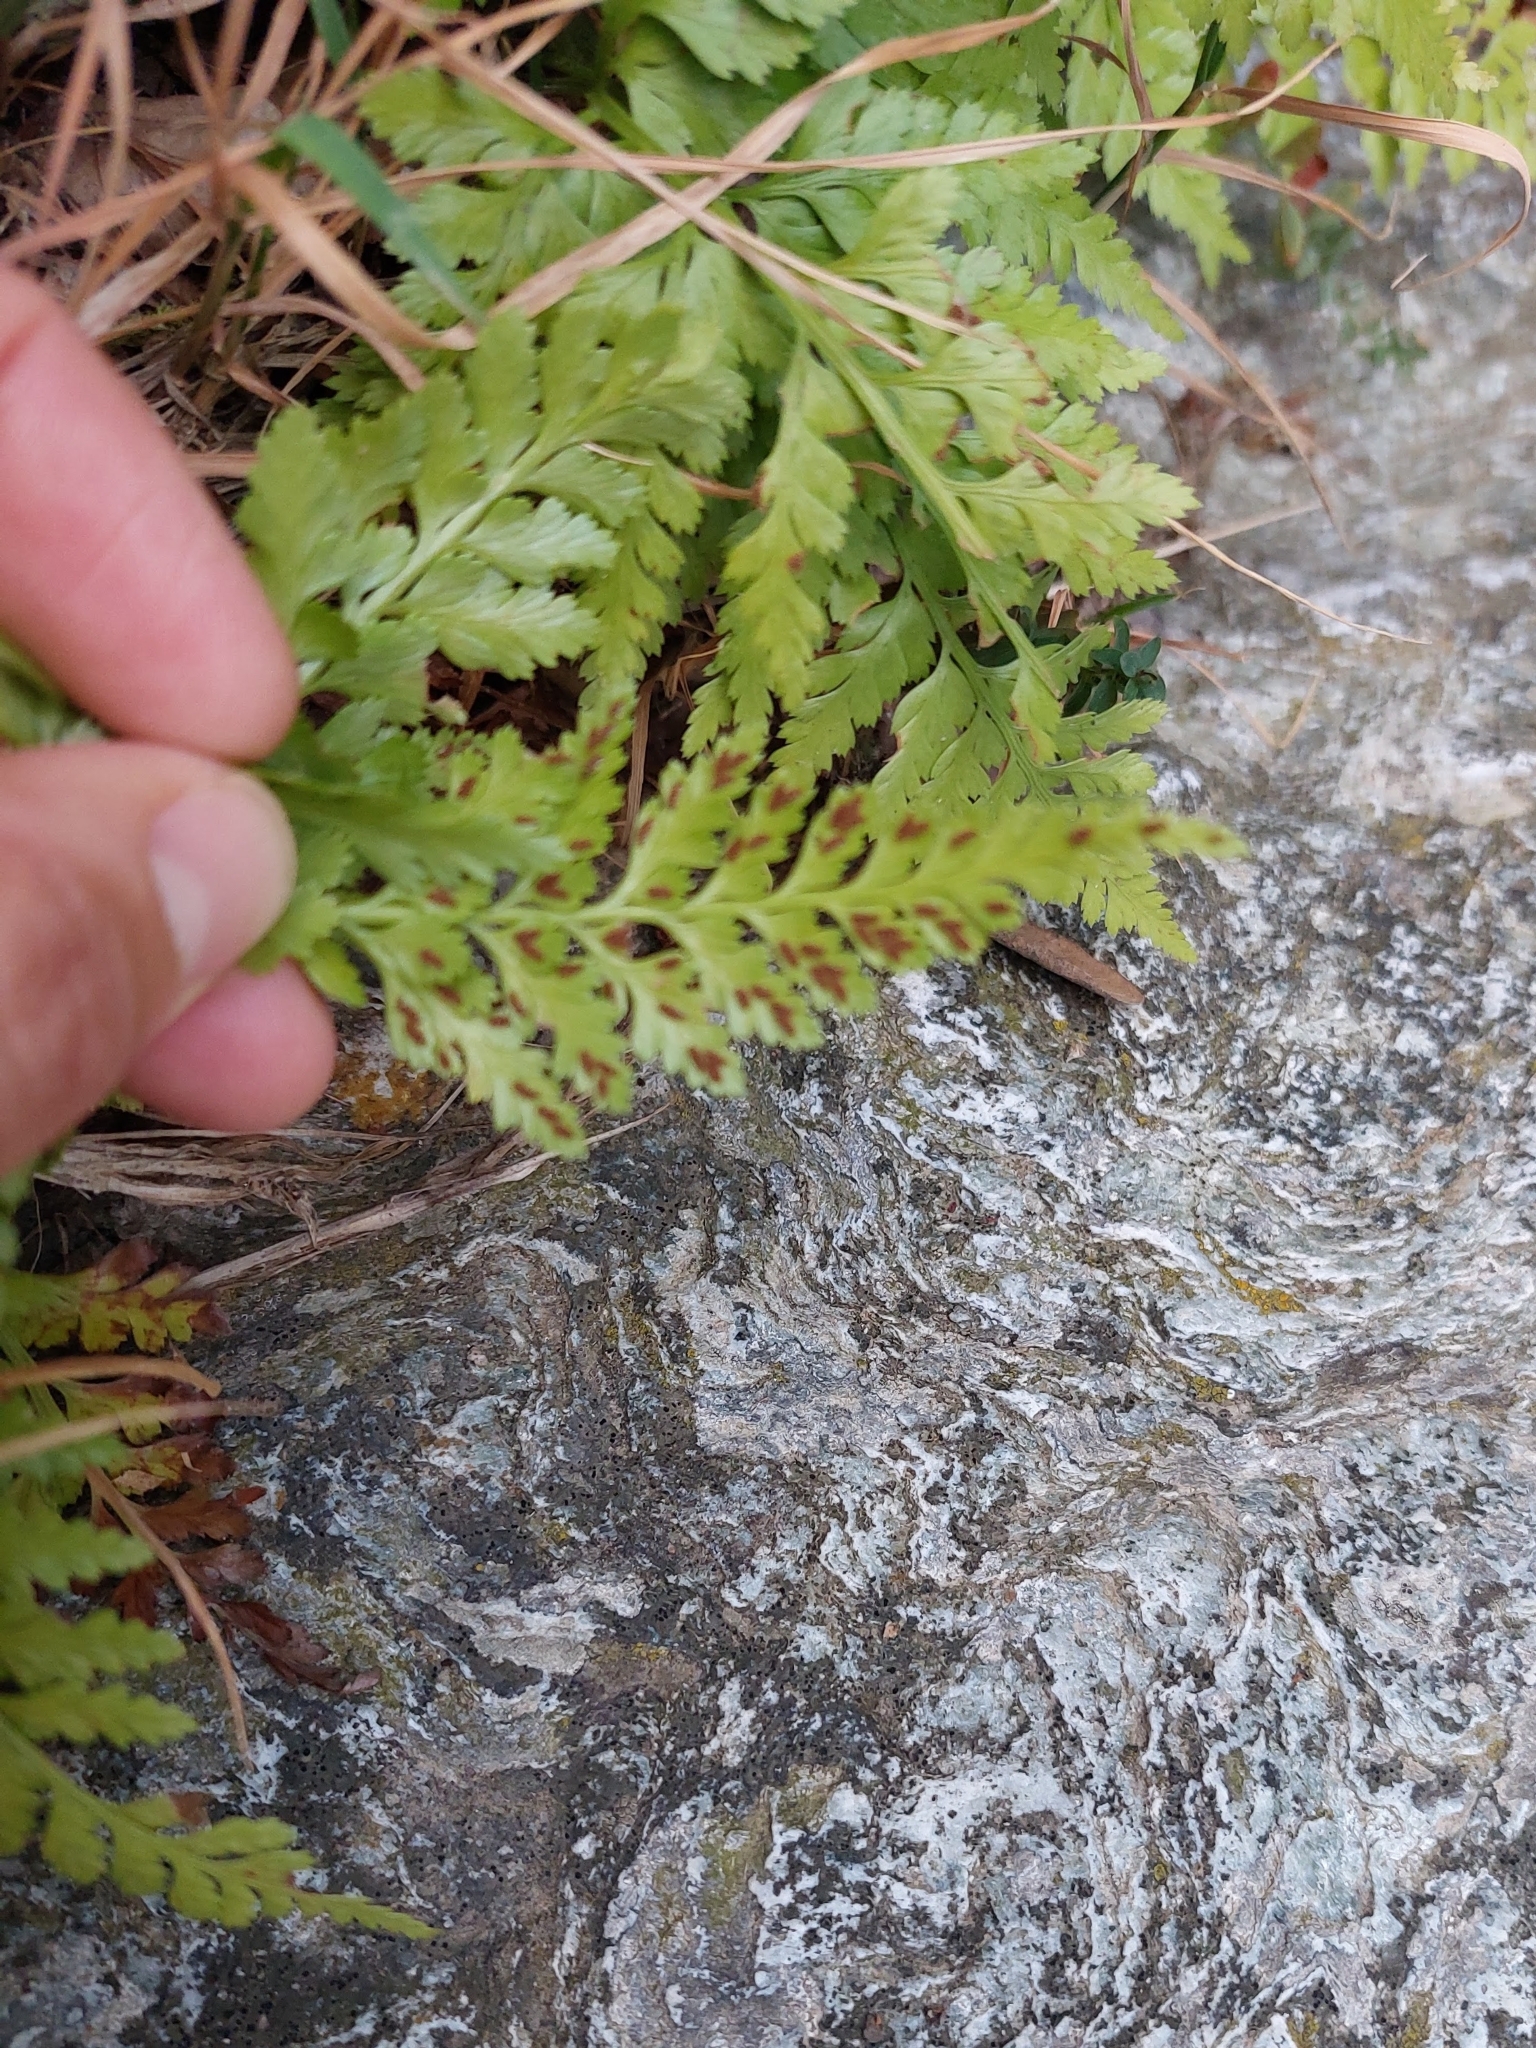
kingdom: Plantae
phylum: Tracheophyta
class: Polypodiopsida
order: Polypodiales
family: Aspleniaceae
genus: Asplenium
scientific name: Asplenium adiantum-nigrum
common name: Black spleenwort
